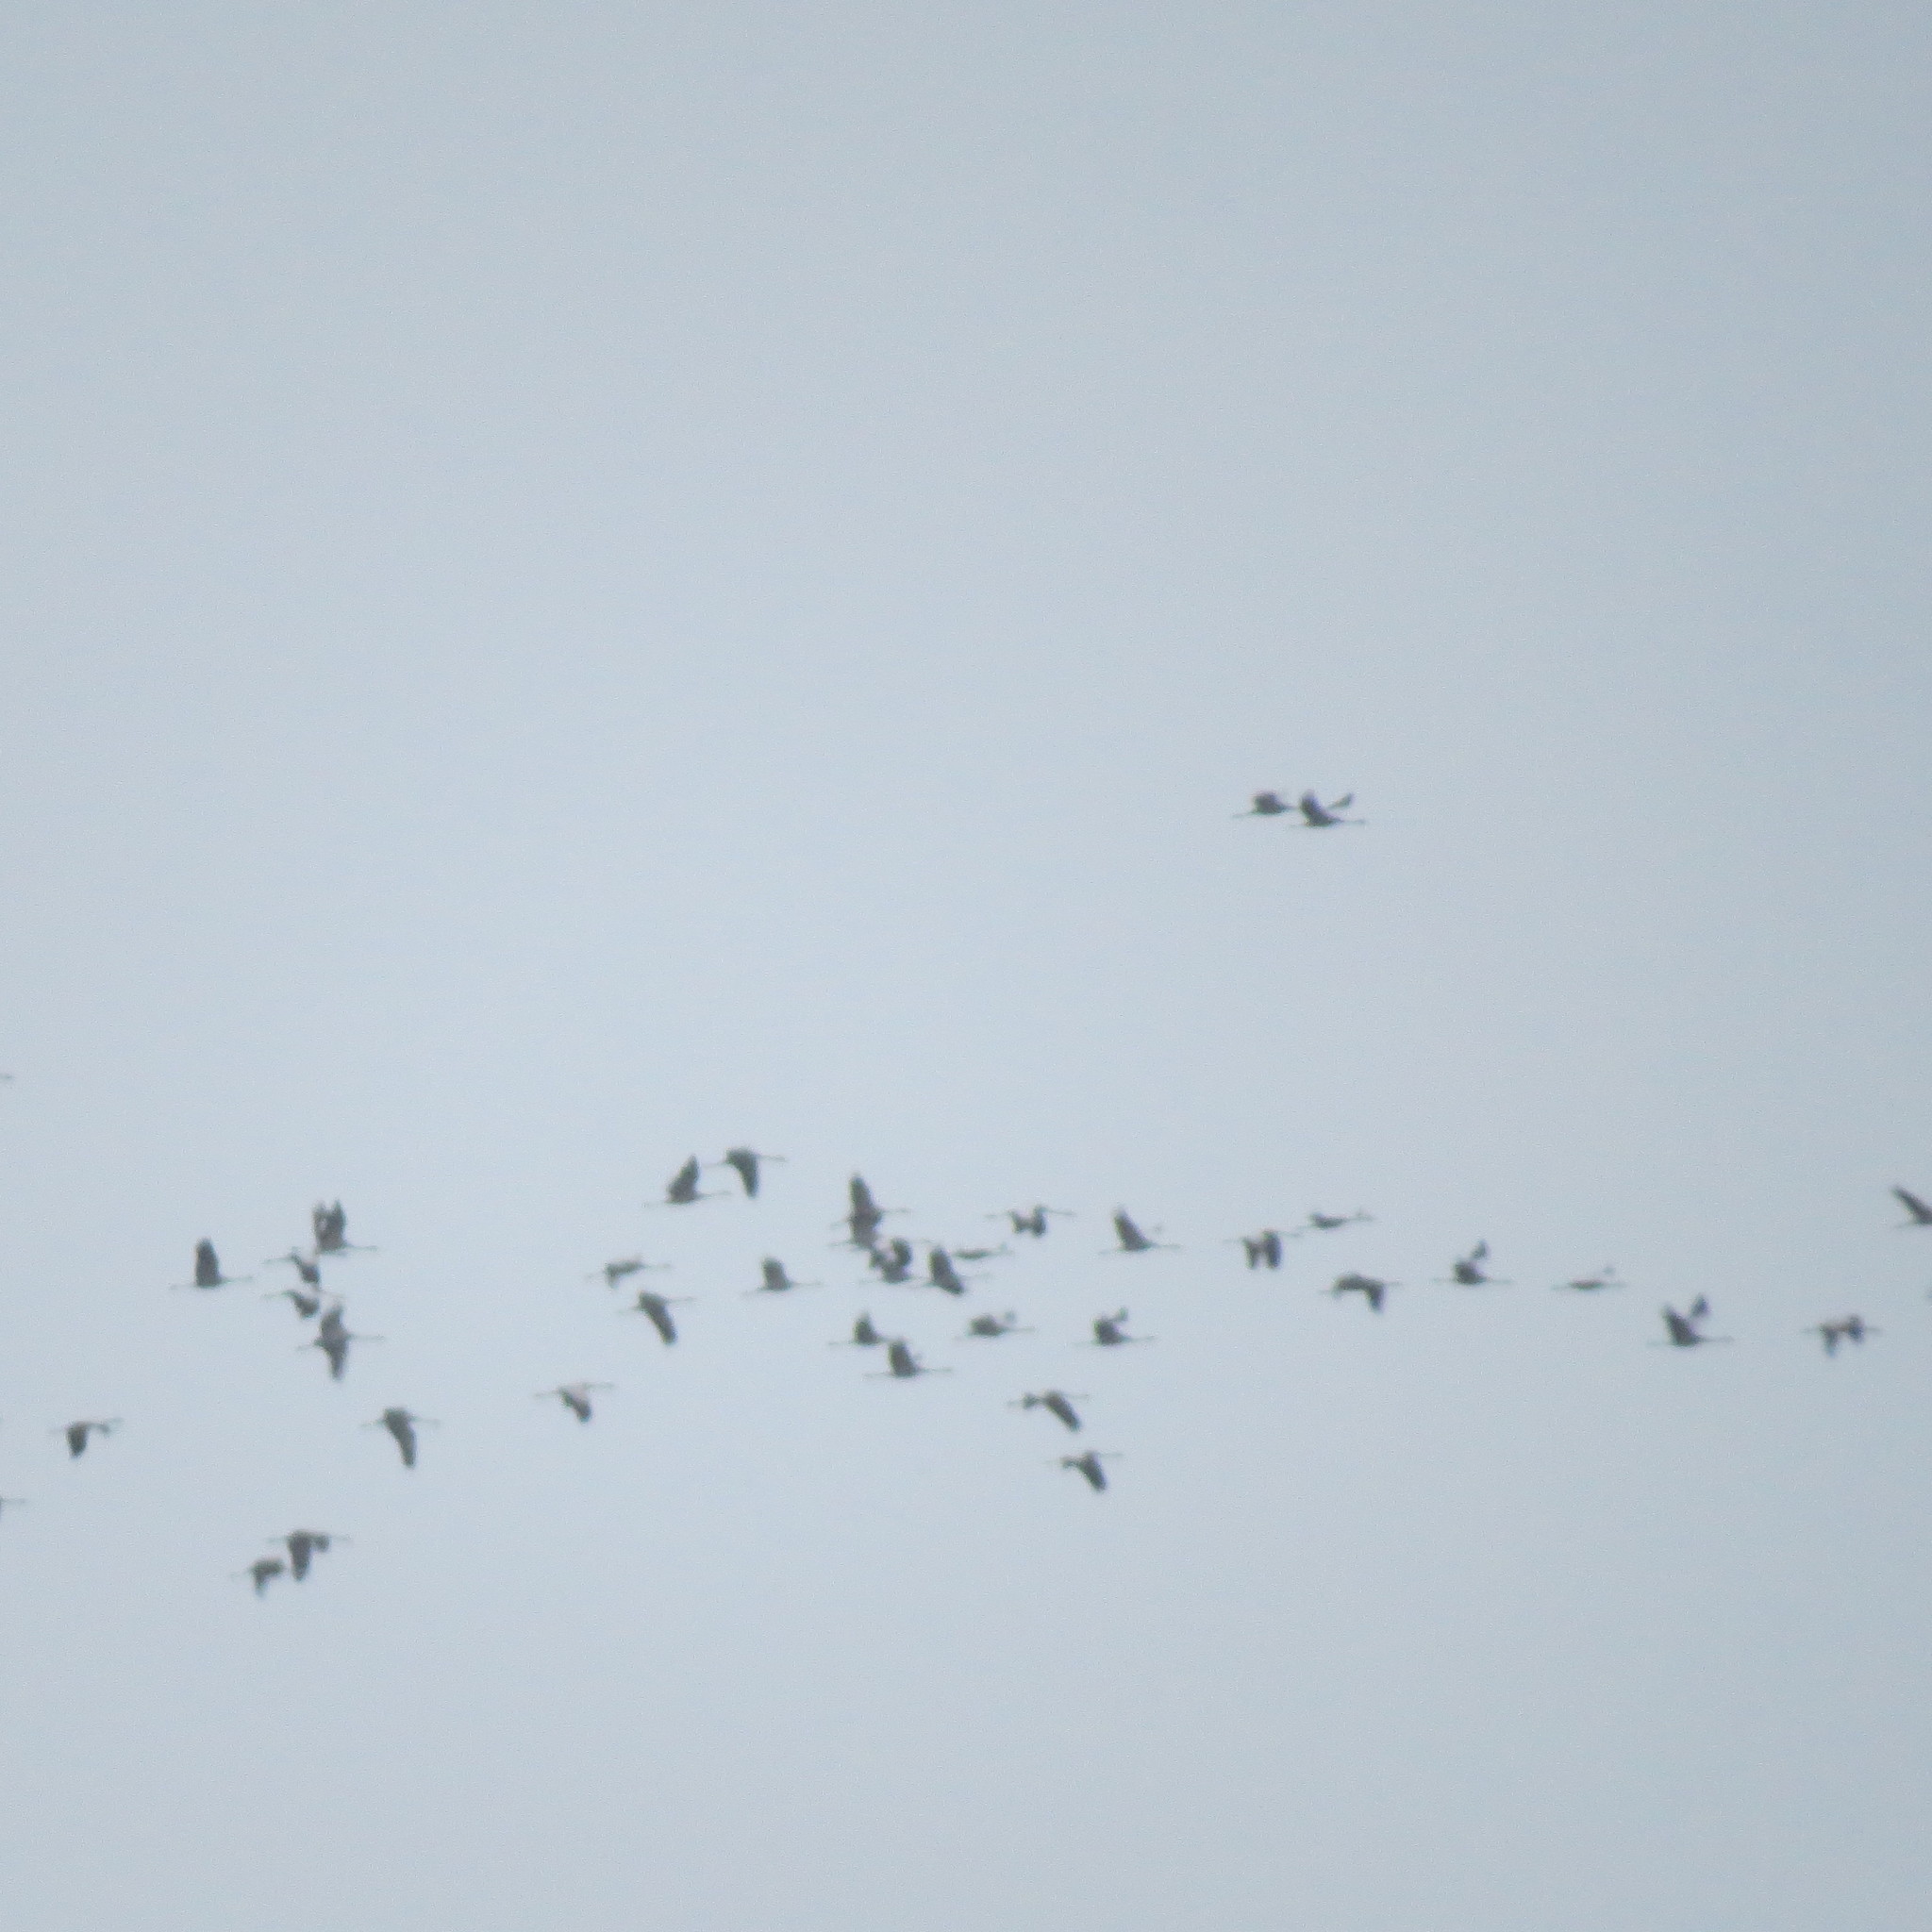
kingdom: Animalia
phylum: Chordata
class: Aves
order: Gruiformes
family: Gruidae
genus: Grus
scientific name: Grus grus
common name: Common crane
